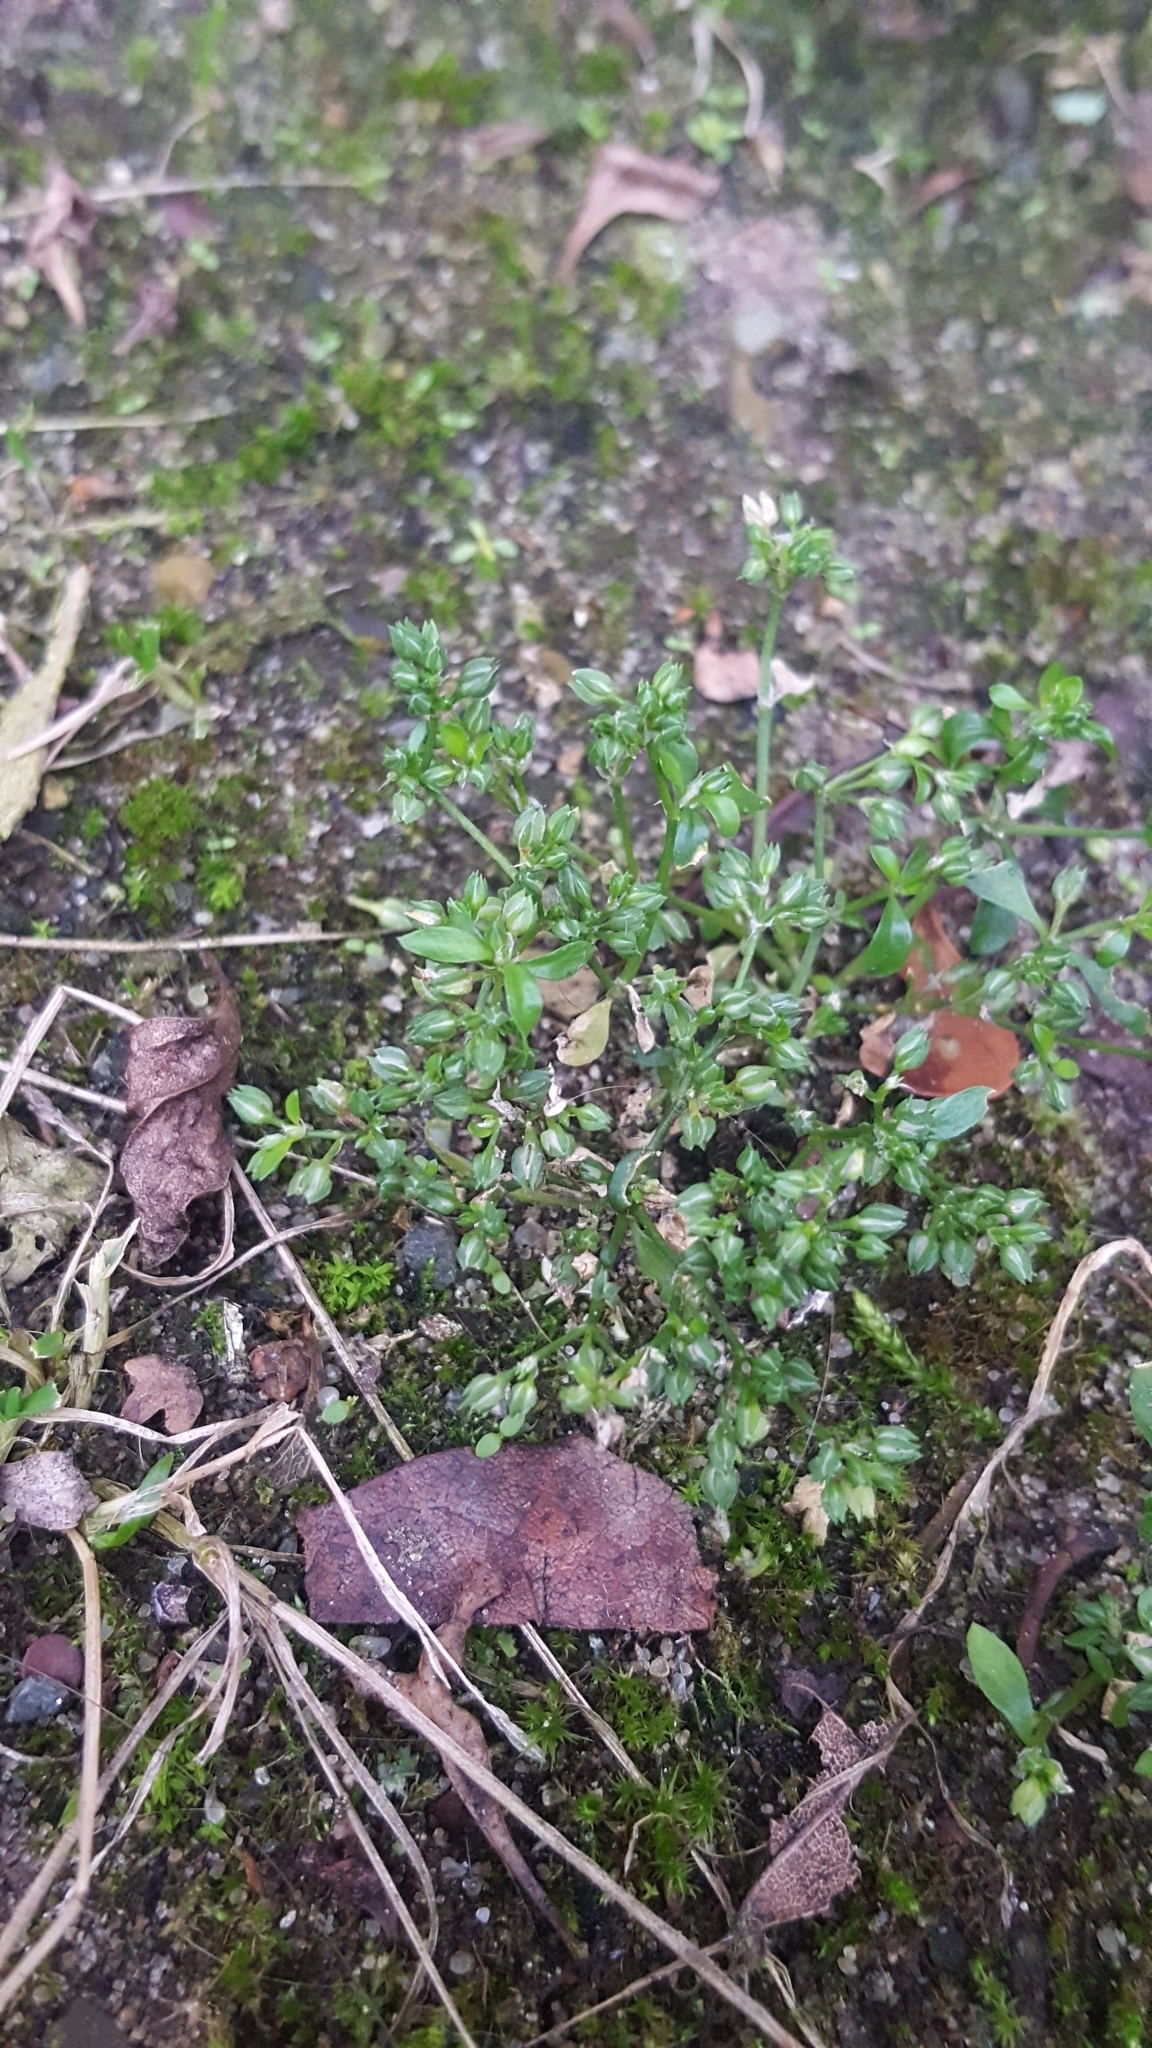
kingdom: Plantae
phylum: Tracheophyta
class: Magnoliopsida
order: Caryophyllales
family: Caryophyllaceae
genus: Polycarpon
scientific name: Polycarpon tetraphyllum
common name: Four-leaved all-seed
